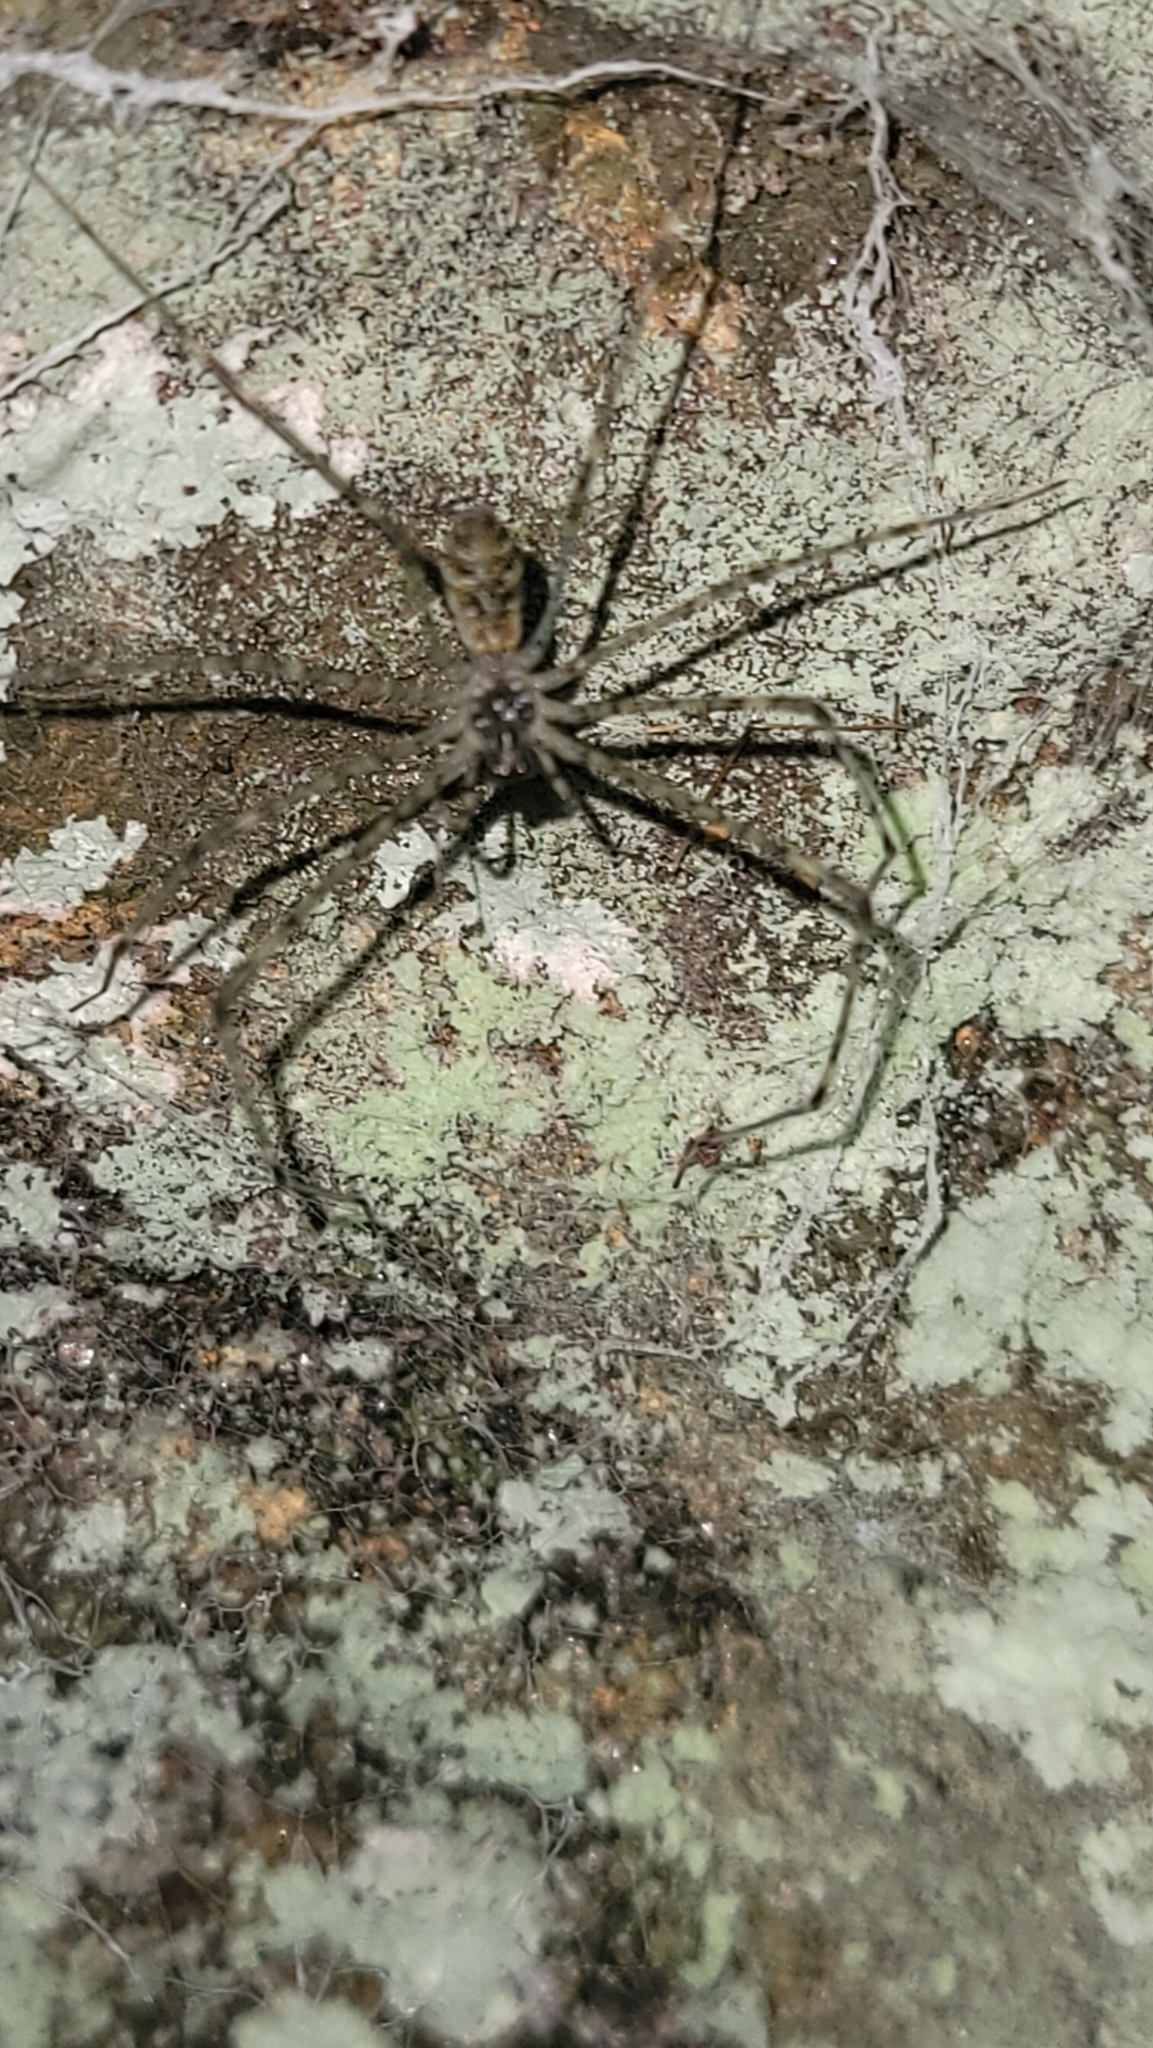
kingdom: Animalia
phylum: Arthropoda
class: Arachnida
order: Araneae
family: Hypochilidae
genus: Hypochilus
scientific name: Hypochilus pococki
